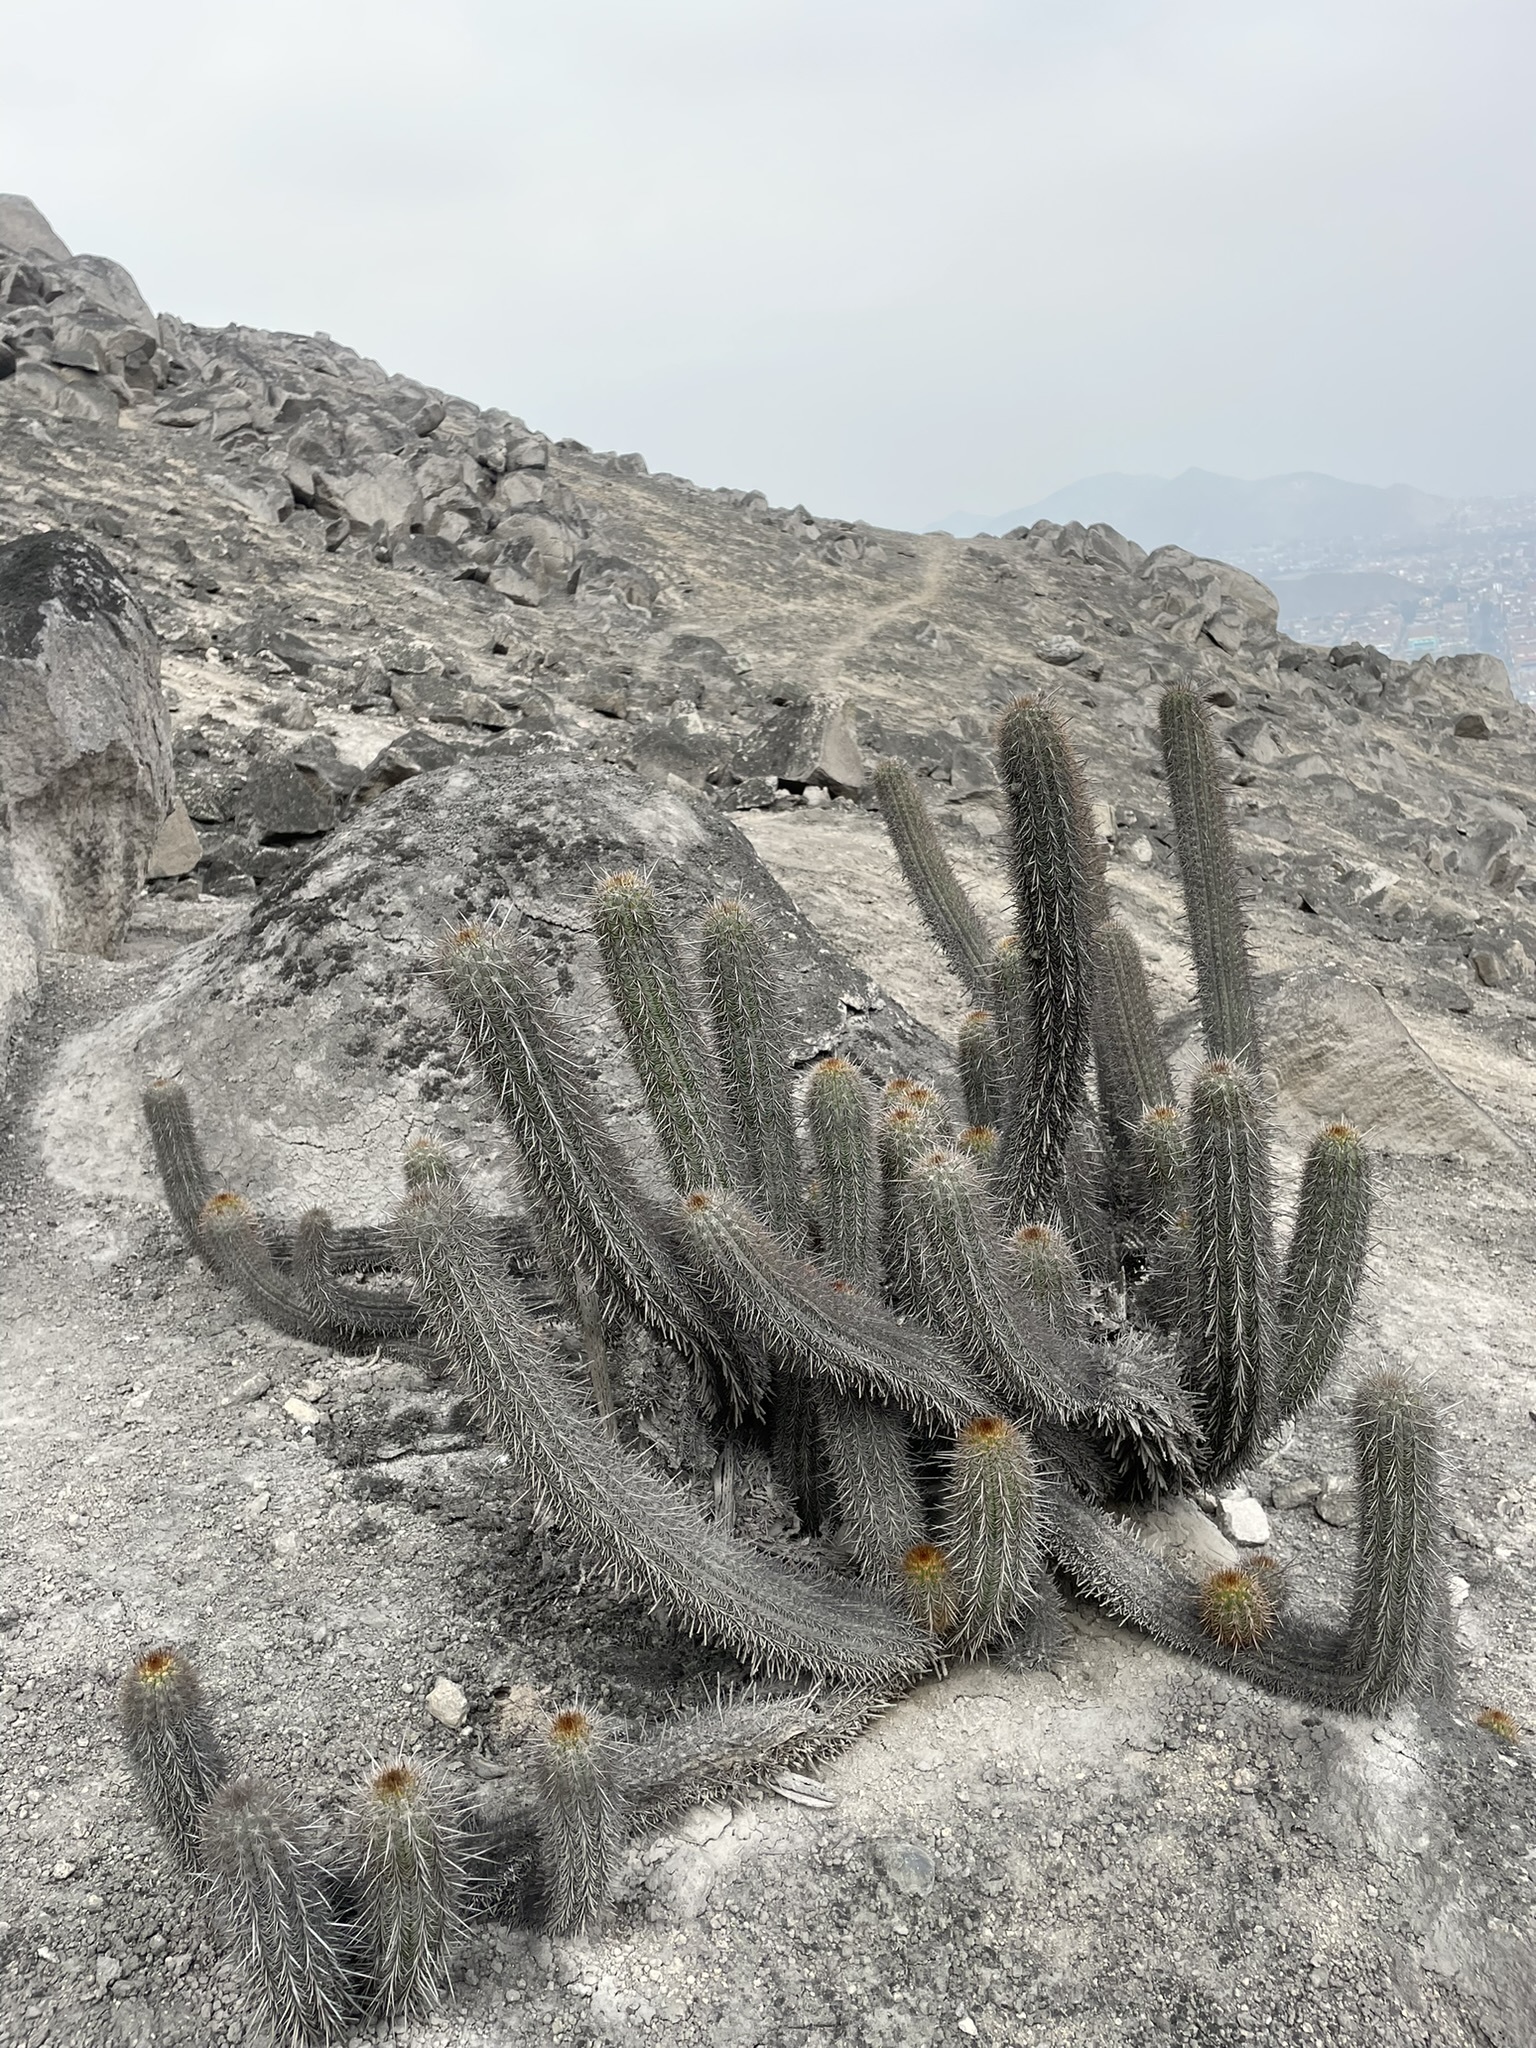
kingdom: Plantae
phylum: Tracheophyta
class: Magnoliopsida
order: Caryophyllales
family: Cactaceae
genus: Haageocereus
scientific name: Haageocereus acranthus
